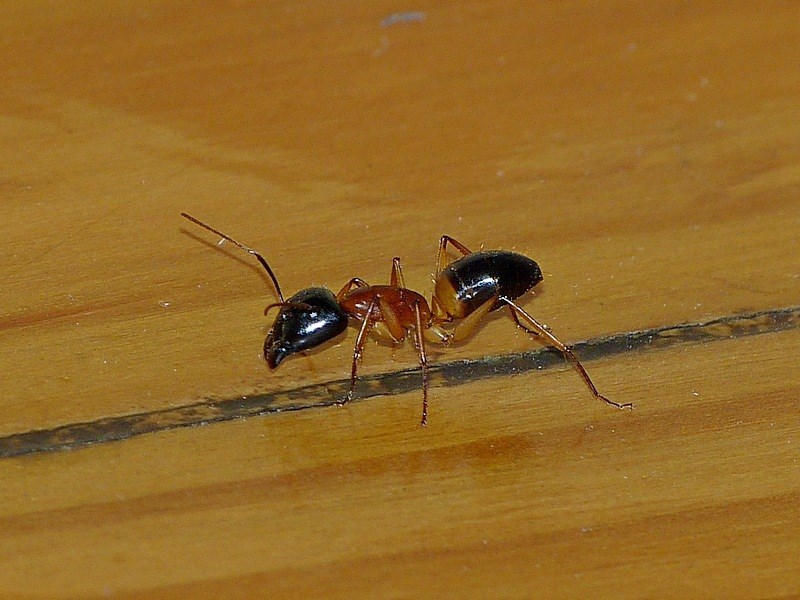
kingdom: Animalia
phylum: Arthropoda
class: Insecta
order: Hymenoptera
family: Formicidae
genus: Camponotus
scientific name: Camponotus consobrinus
